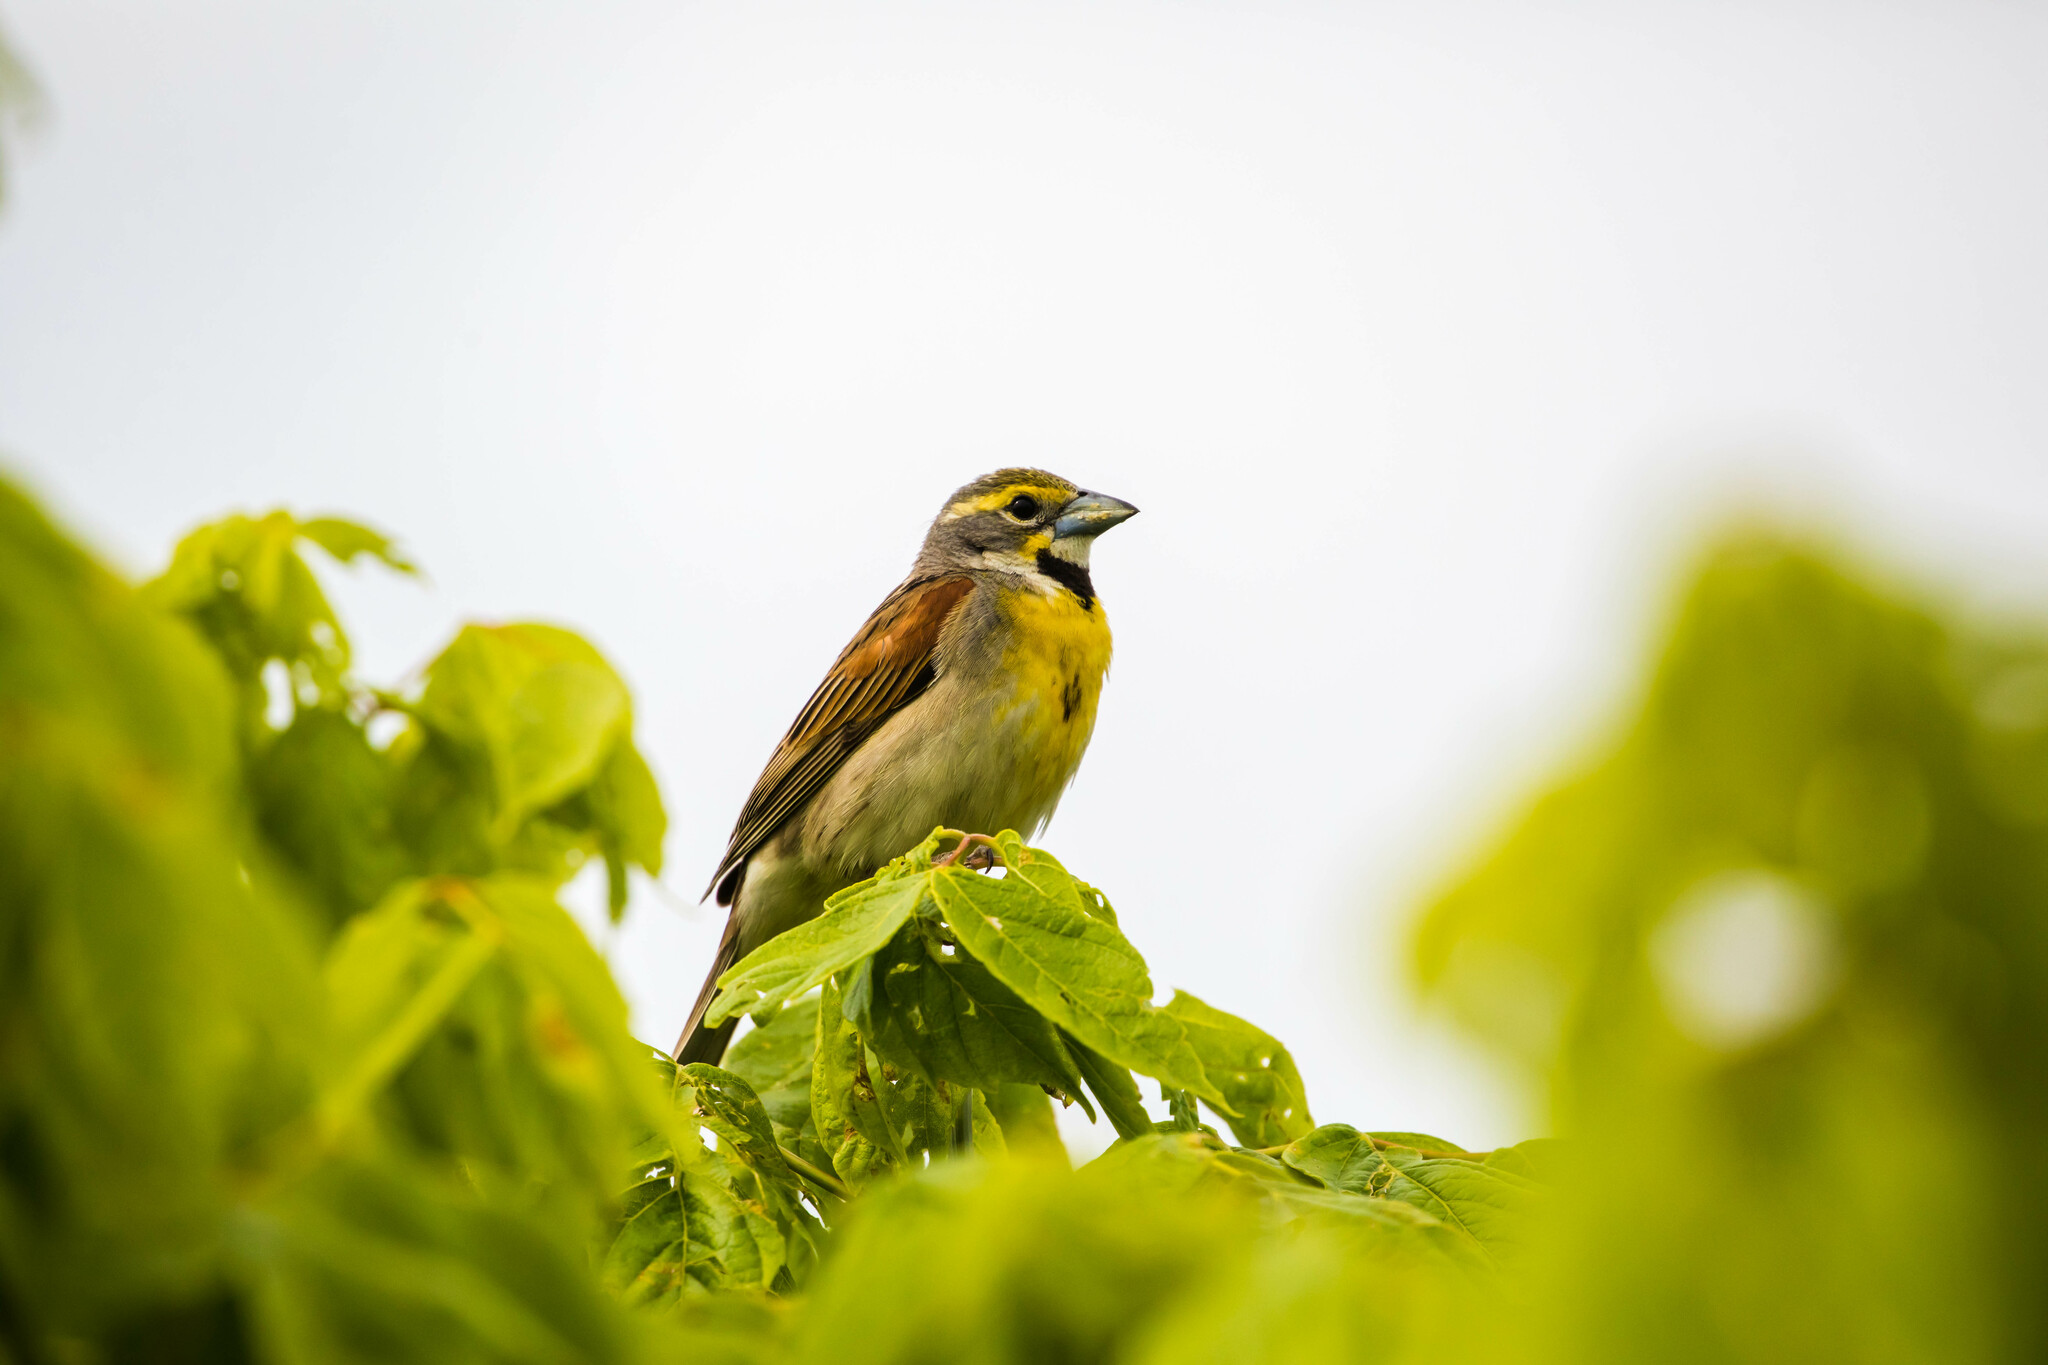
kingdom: Animalia
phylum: Chordata
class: Aves
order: Passeriformes
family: Cardinalidae
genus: Spiza
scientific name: Spiza americana
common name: Dickcissel
